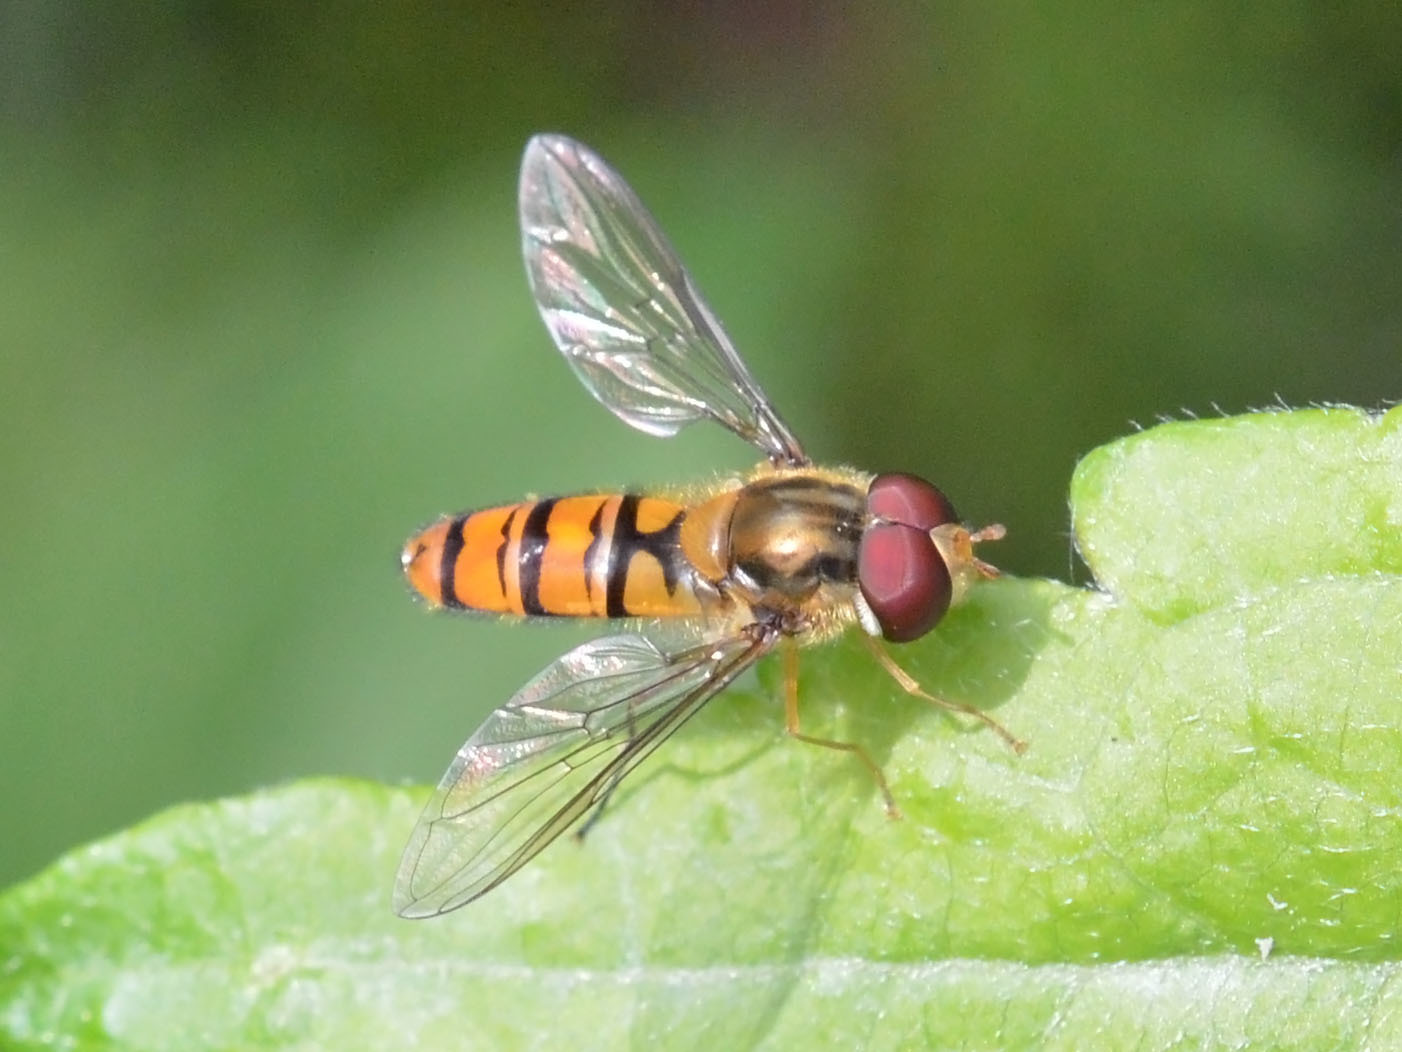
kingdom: Animalia
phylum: Arthropoda
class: Insecta
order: Diptera
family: Syrphidae
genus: Episyrphus
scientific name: Episyrphus balteatus
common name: Marmalade hoverfly
